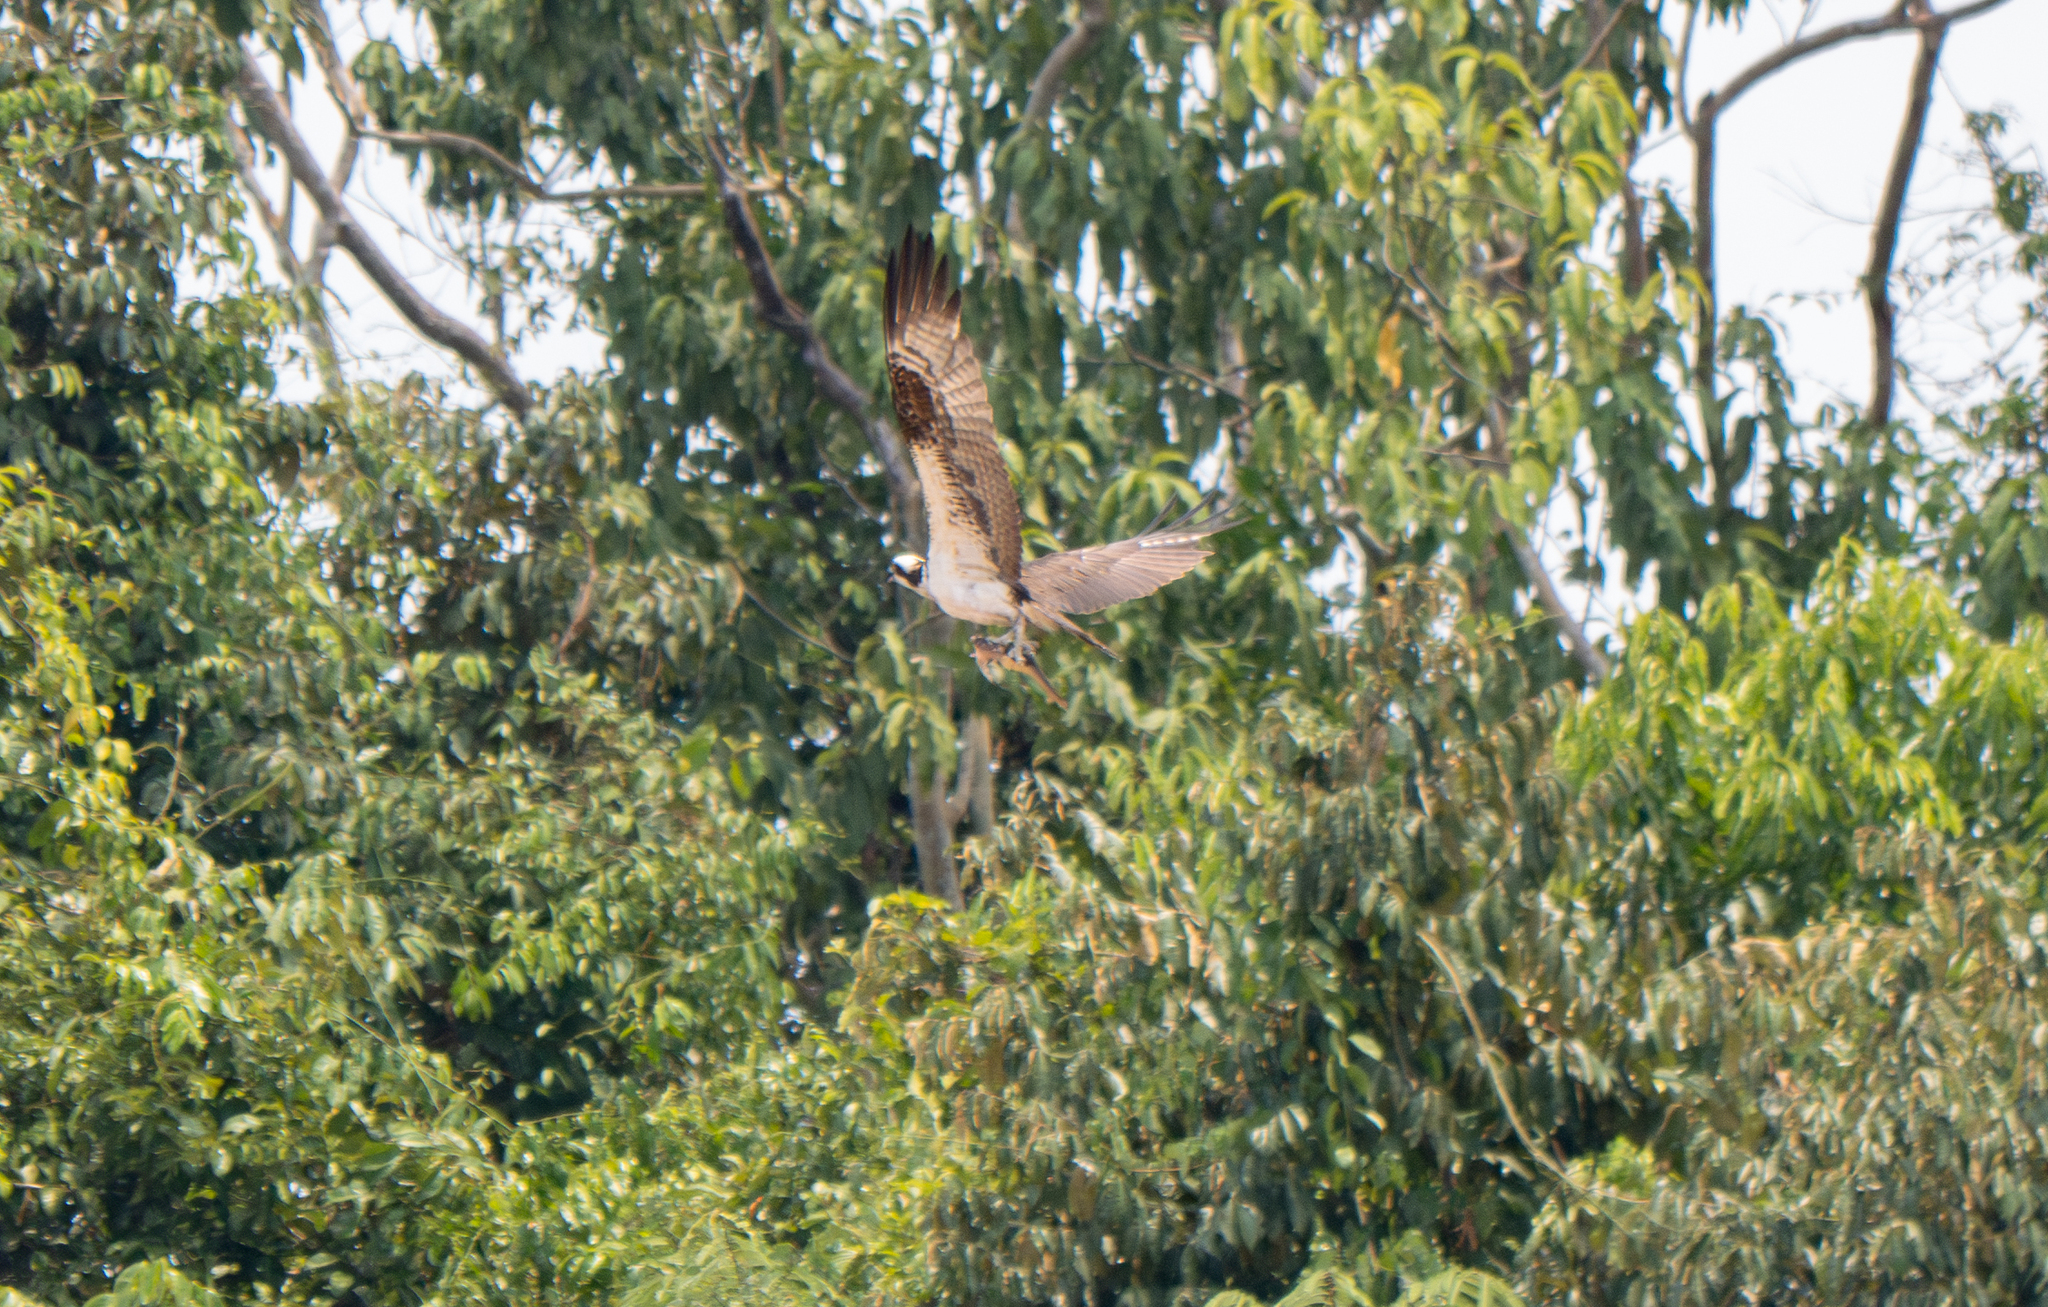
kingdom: Animalia
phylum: Chordata
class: Aves
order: Accipitriformes
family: Pandionidae
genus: Pandion
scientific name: Pandion haliaetus
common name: Osprey
